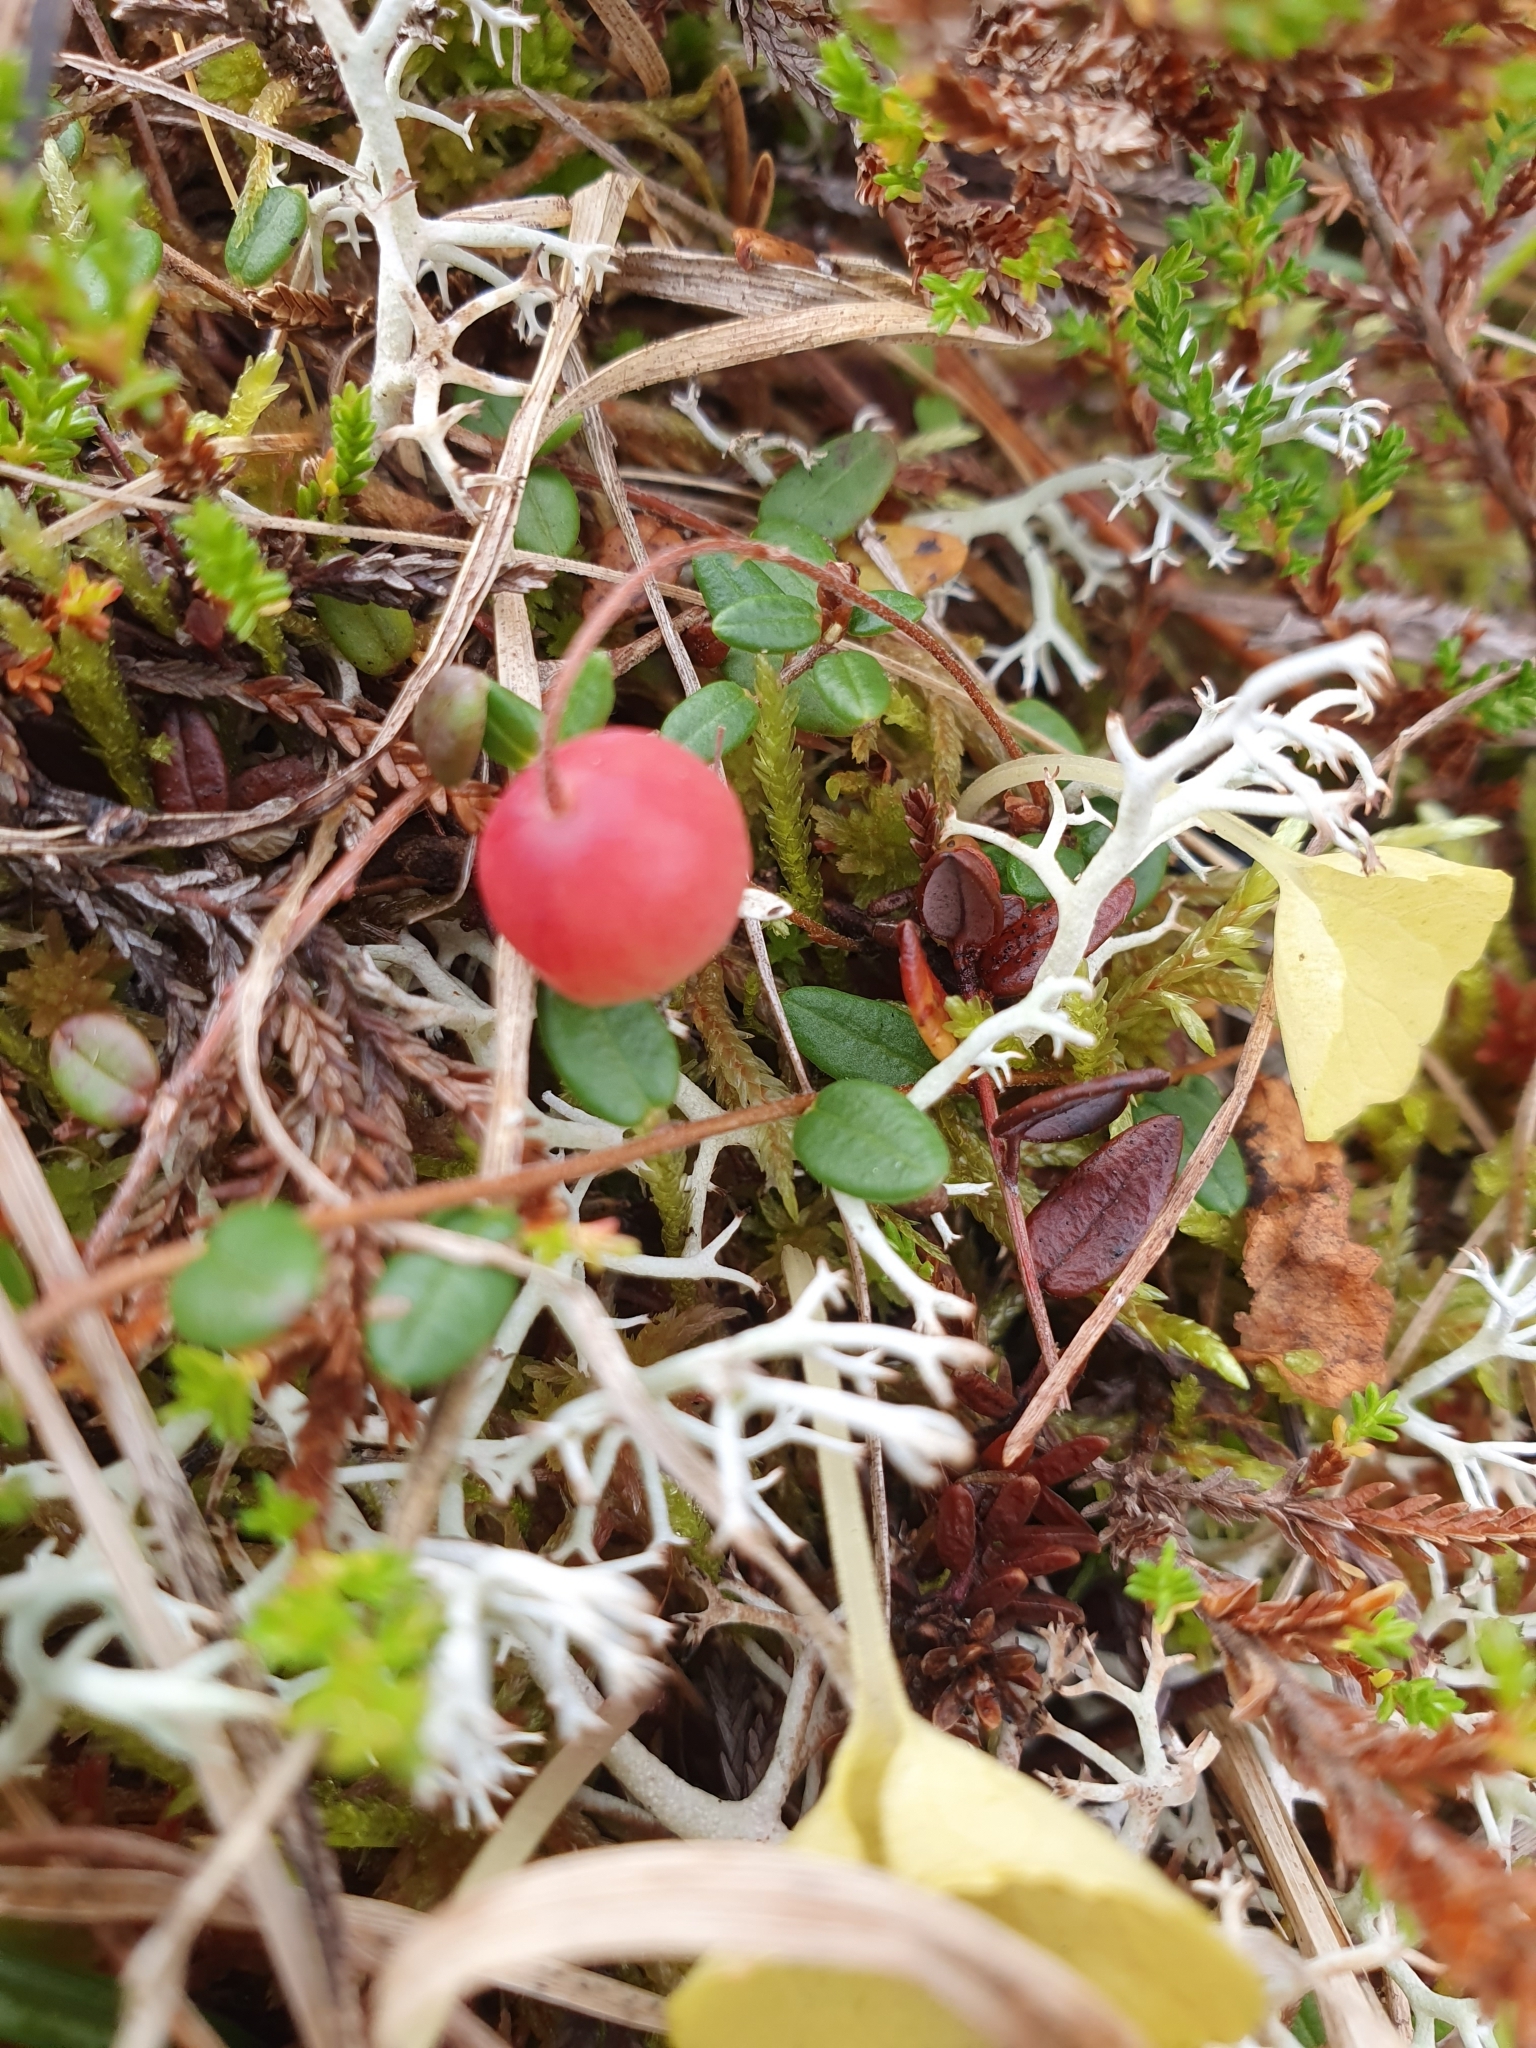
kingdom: Plantae
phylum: Tracheophyta
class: Magnoliopsida
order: Ericales
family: Ericaceae
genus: Vaccinium
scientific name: Vaccinium microcarpum
